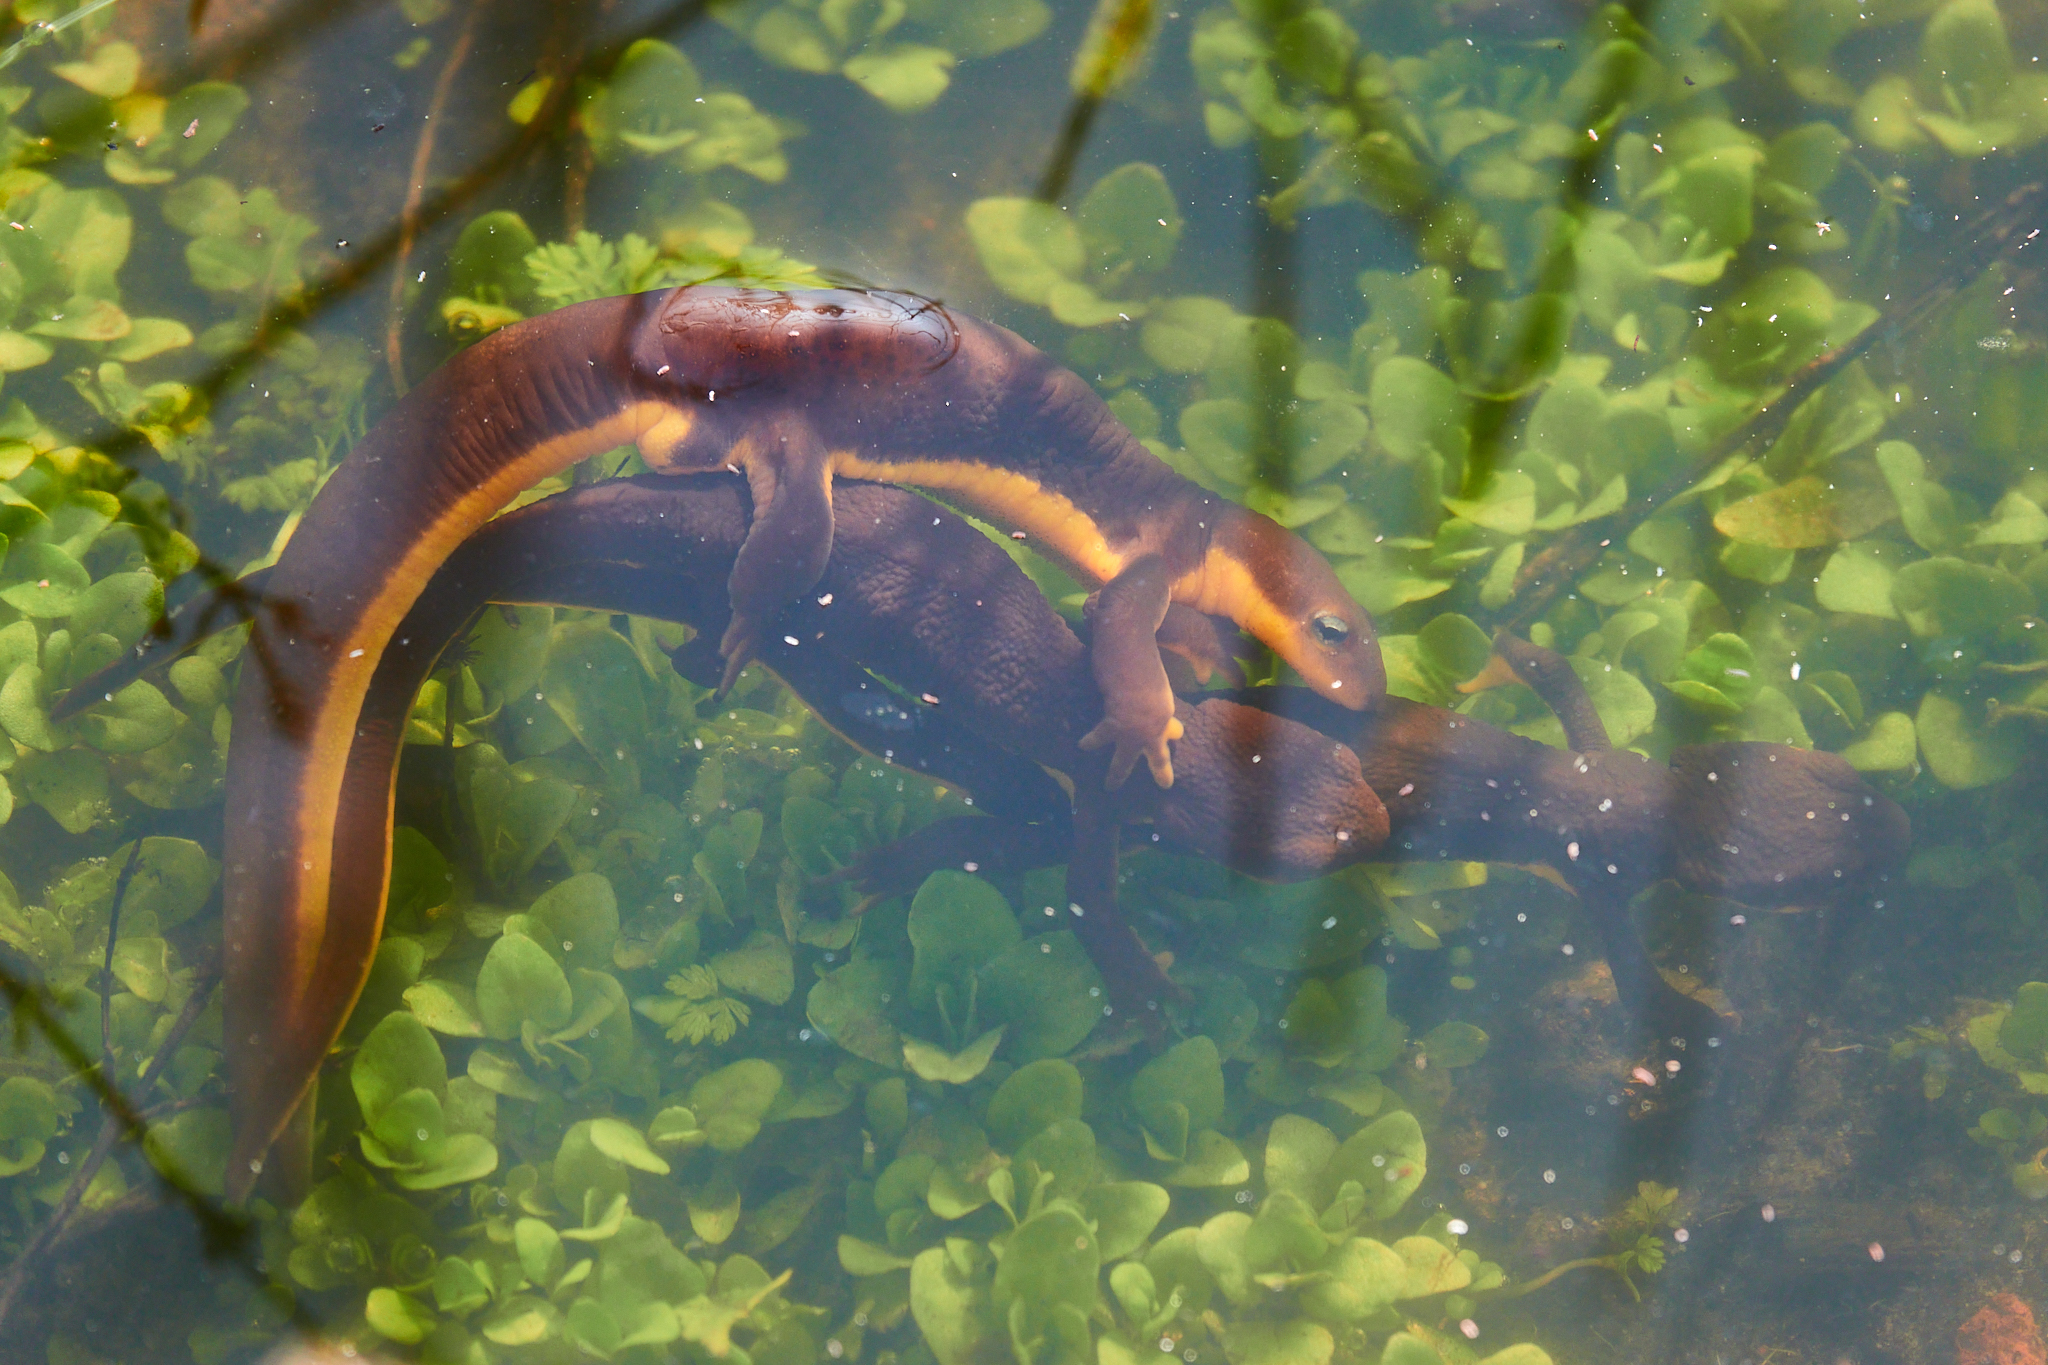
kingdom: Animalia
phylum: Chordata
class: Amphibia
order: Caudata
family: Salamandridae
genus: Taricha
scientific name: Taricha torosa
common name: California newt
